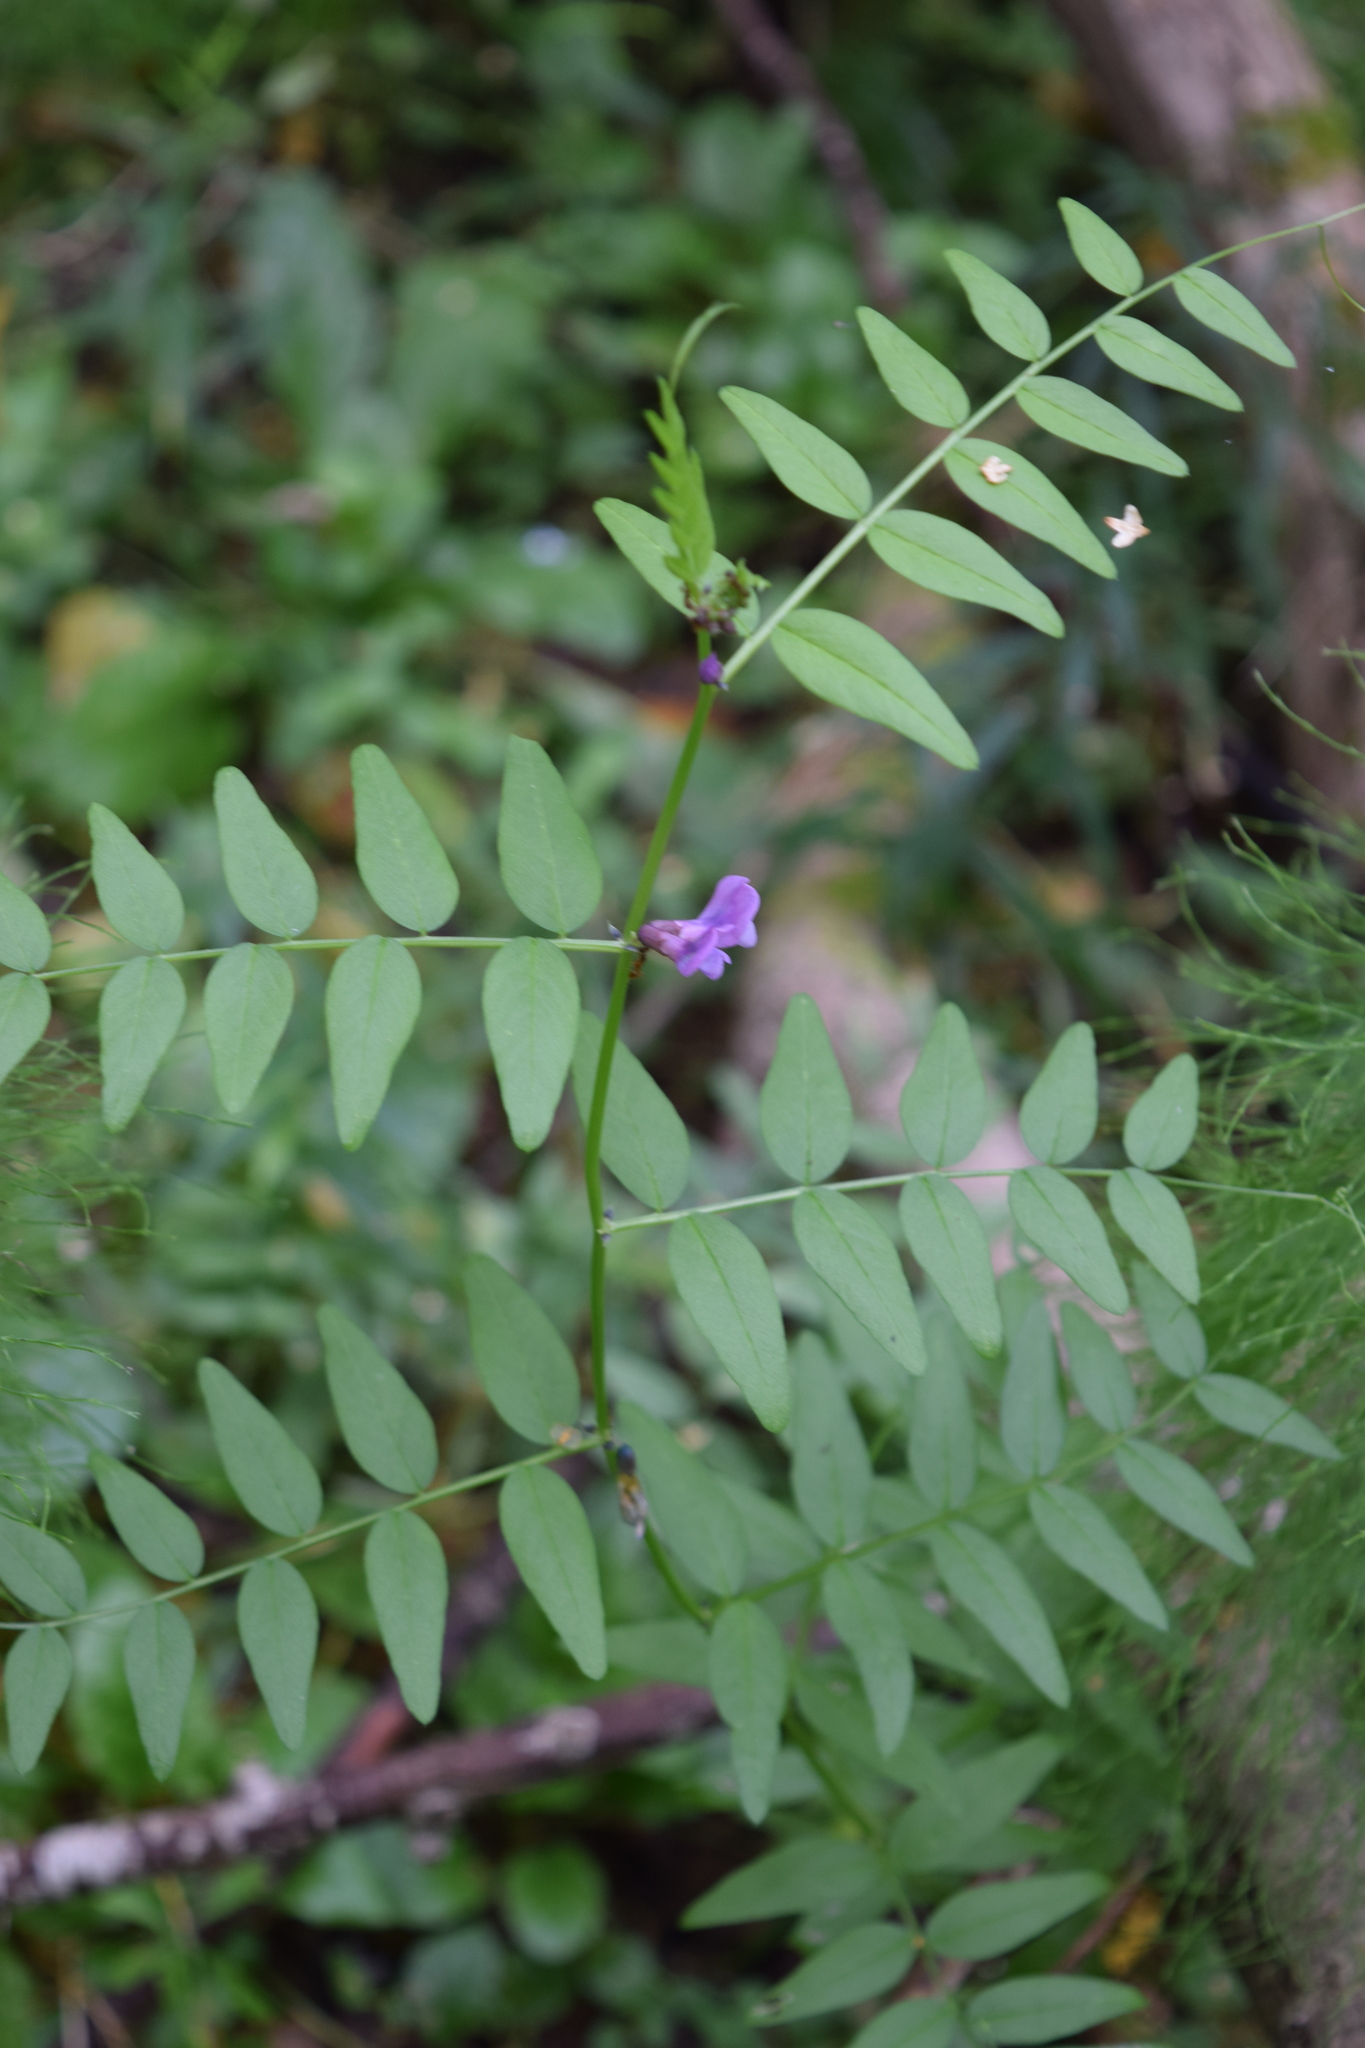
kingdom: Plantae
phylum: Tracheophyta
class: Magnoliopsida
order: Fabales
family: Fabaceae
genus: Vicia
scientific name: Vicia sepium
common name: Bush vetch
